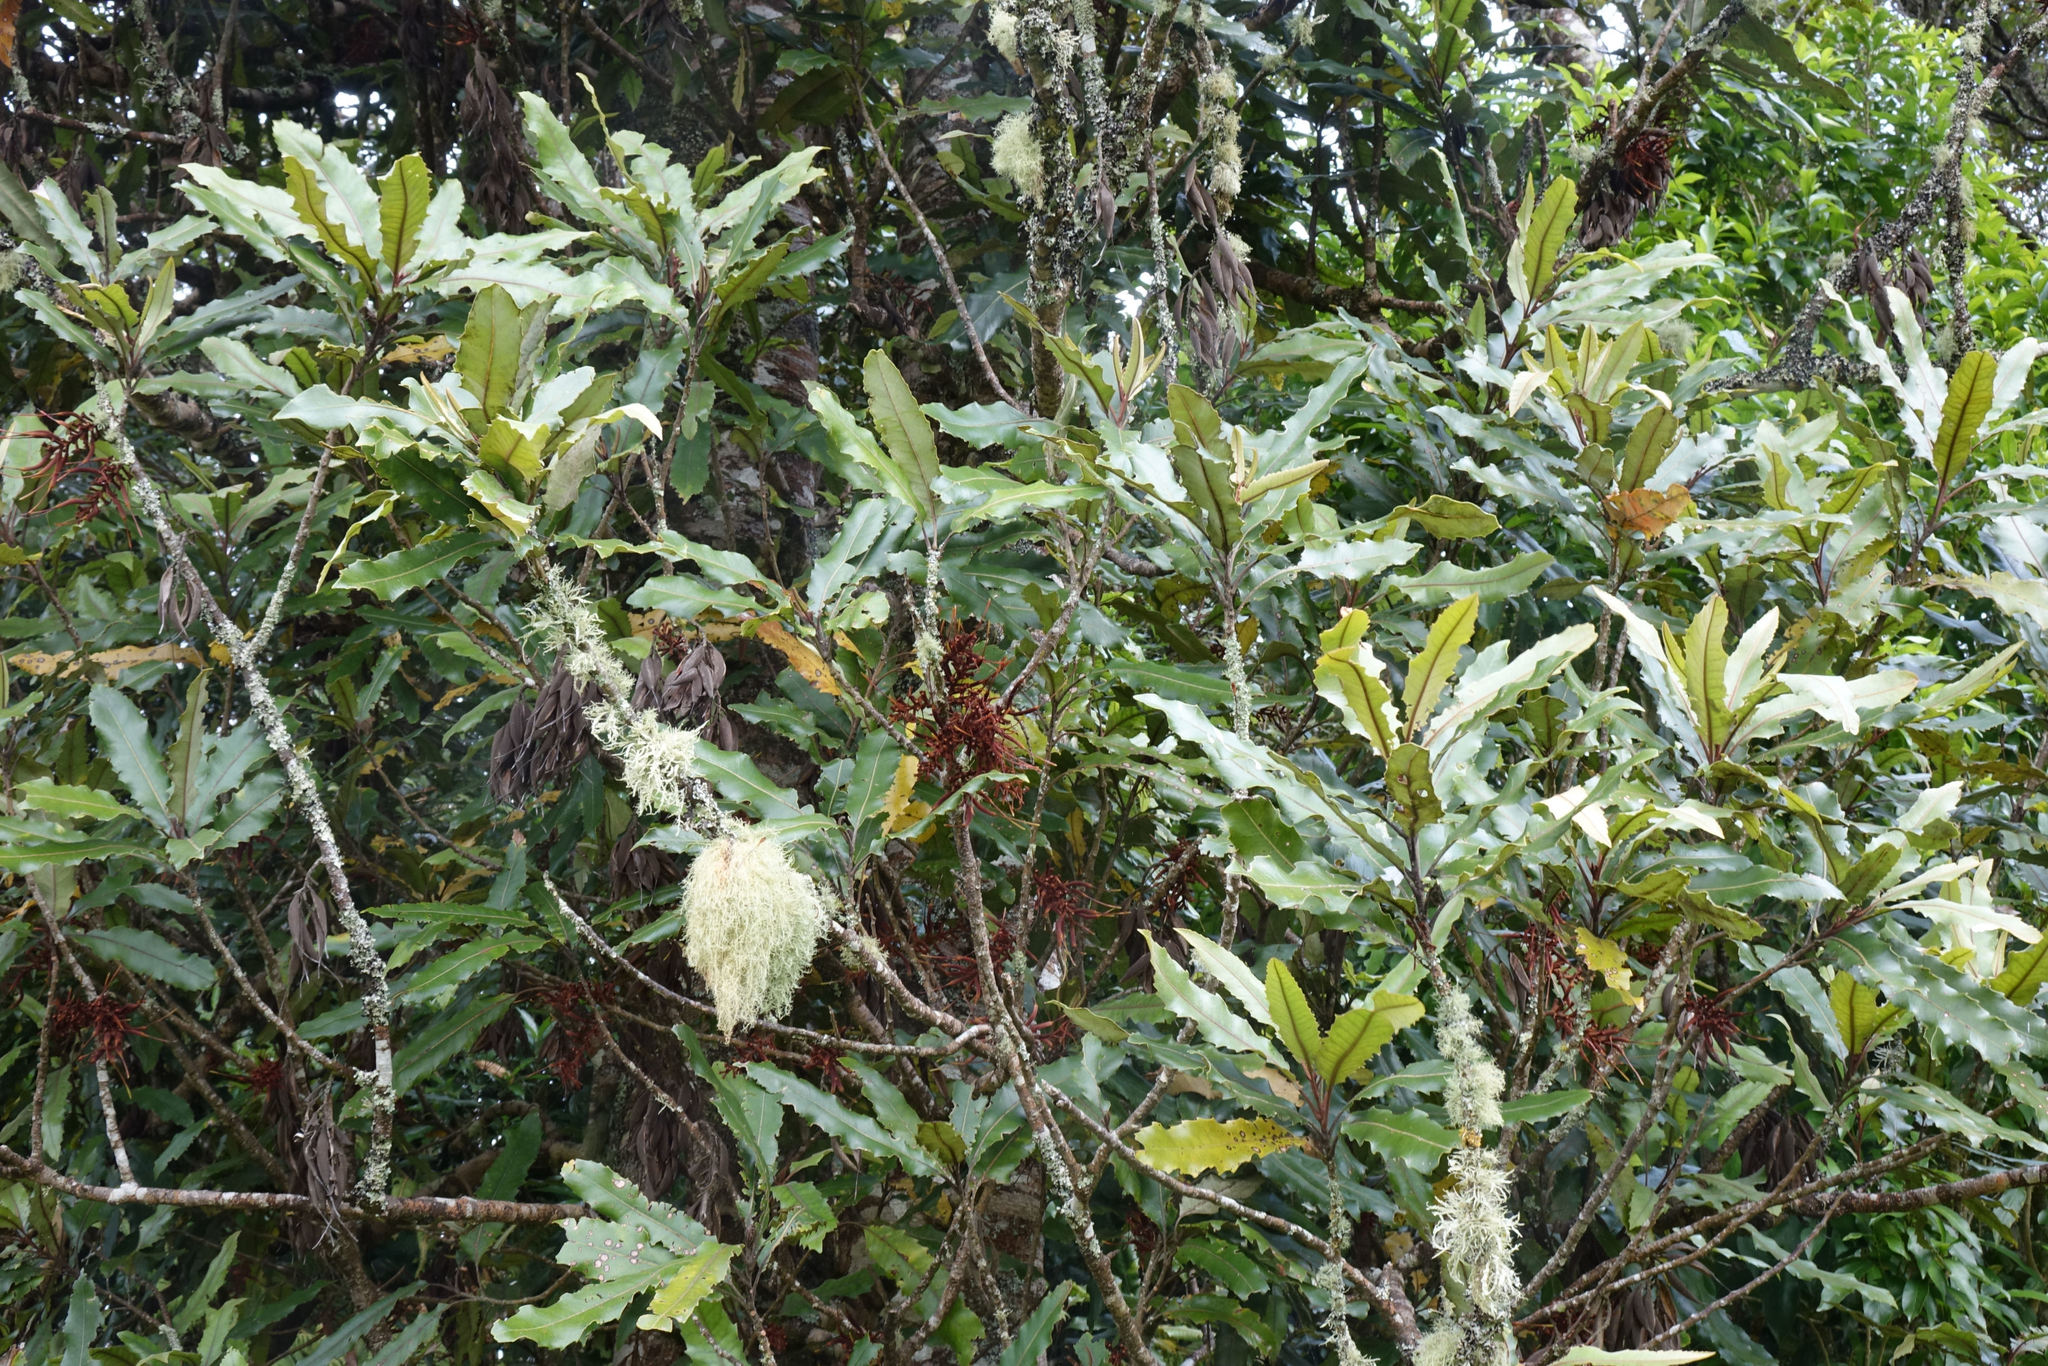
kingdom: Plantae
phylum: Tracheophyta
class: Magnoliopsida
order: Proteales
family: Proteaceae
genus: Knightia
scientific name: Knightia excelsa
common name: New zealand-honeysuckle
